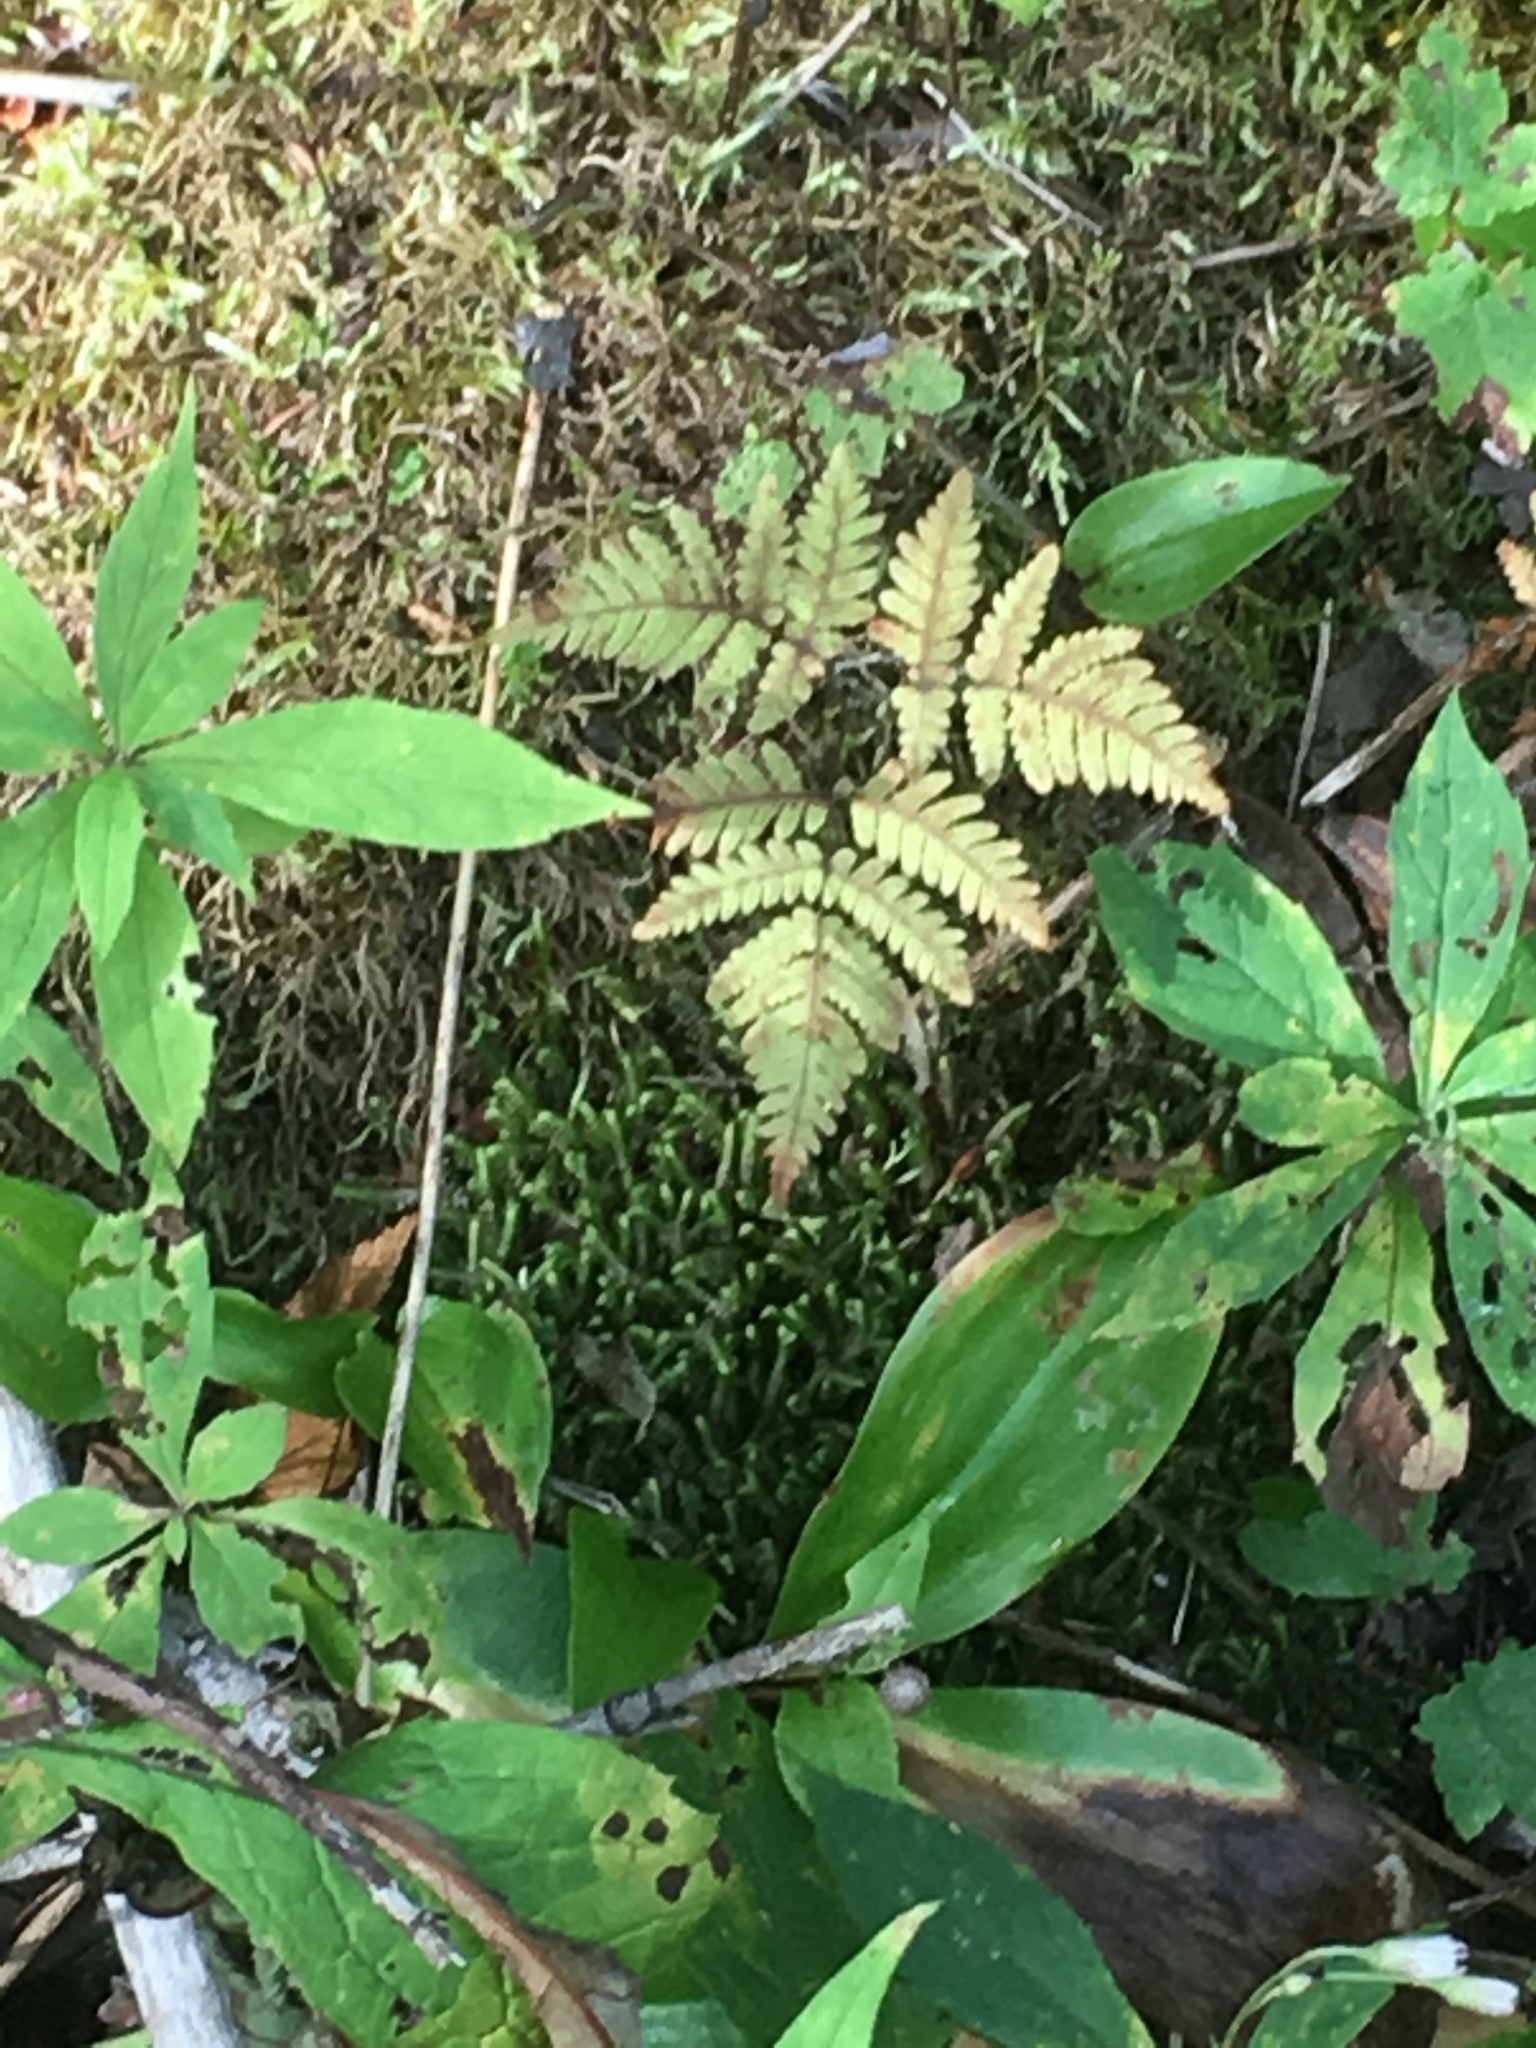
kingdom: Plantae
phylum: Tracheophyta
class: Polypodiopsida
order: Polypodiales
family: Cystopteridaceae
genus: Gymnocarpium
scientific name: Gymnocarpium dryopteris
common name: Oak fern
